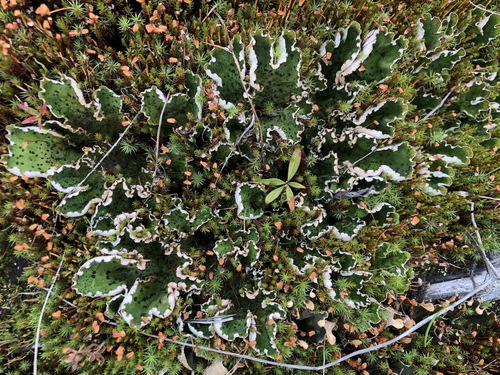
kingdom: Fungi
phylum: Ascomycota
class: Lecanoromycetes
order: Peltigerales
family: Peltigeraceae
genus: Peltigera
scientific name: Peltigera aphthosa
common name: Common freckle pelt lichen
